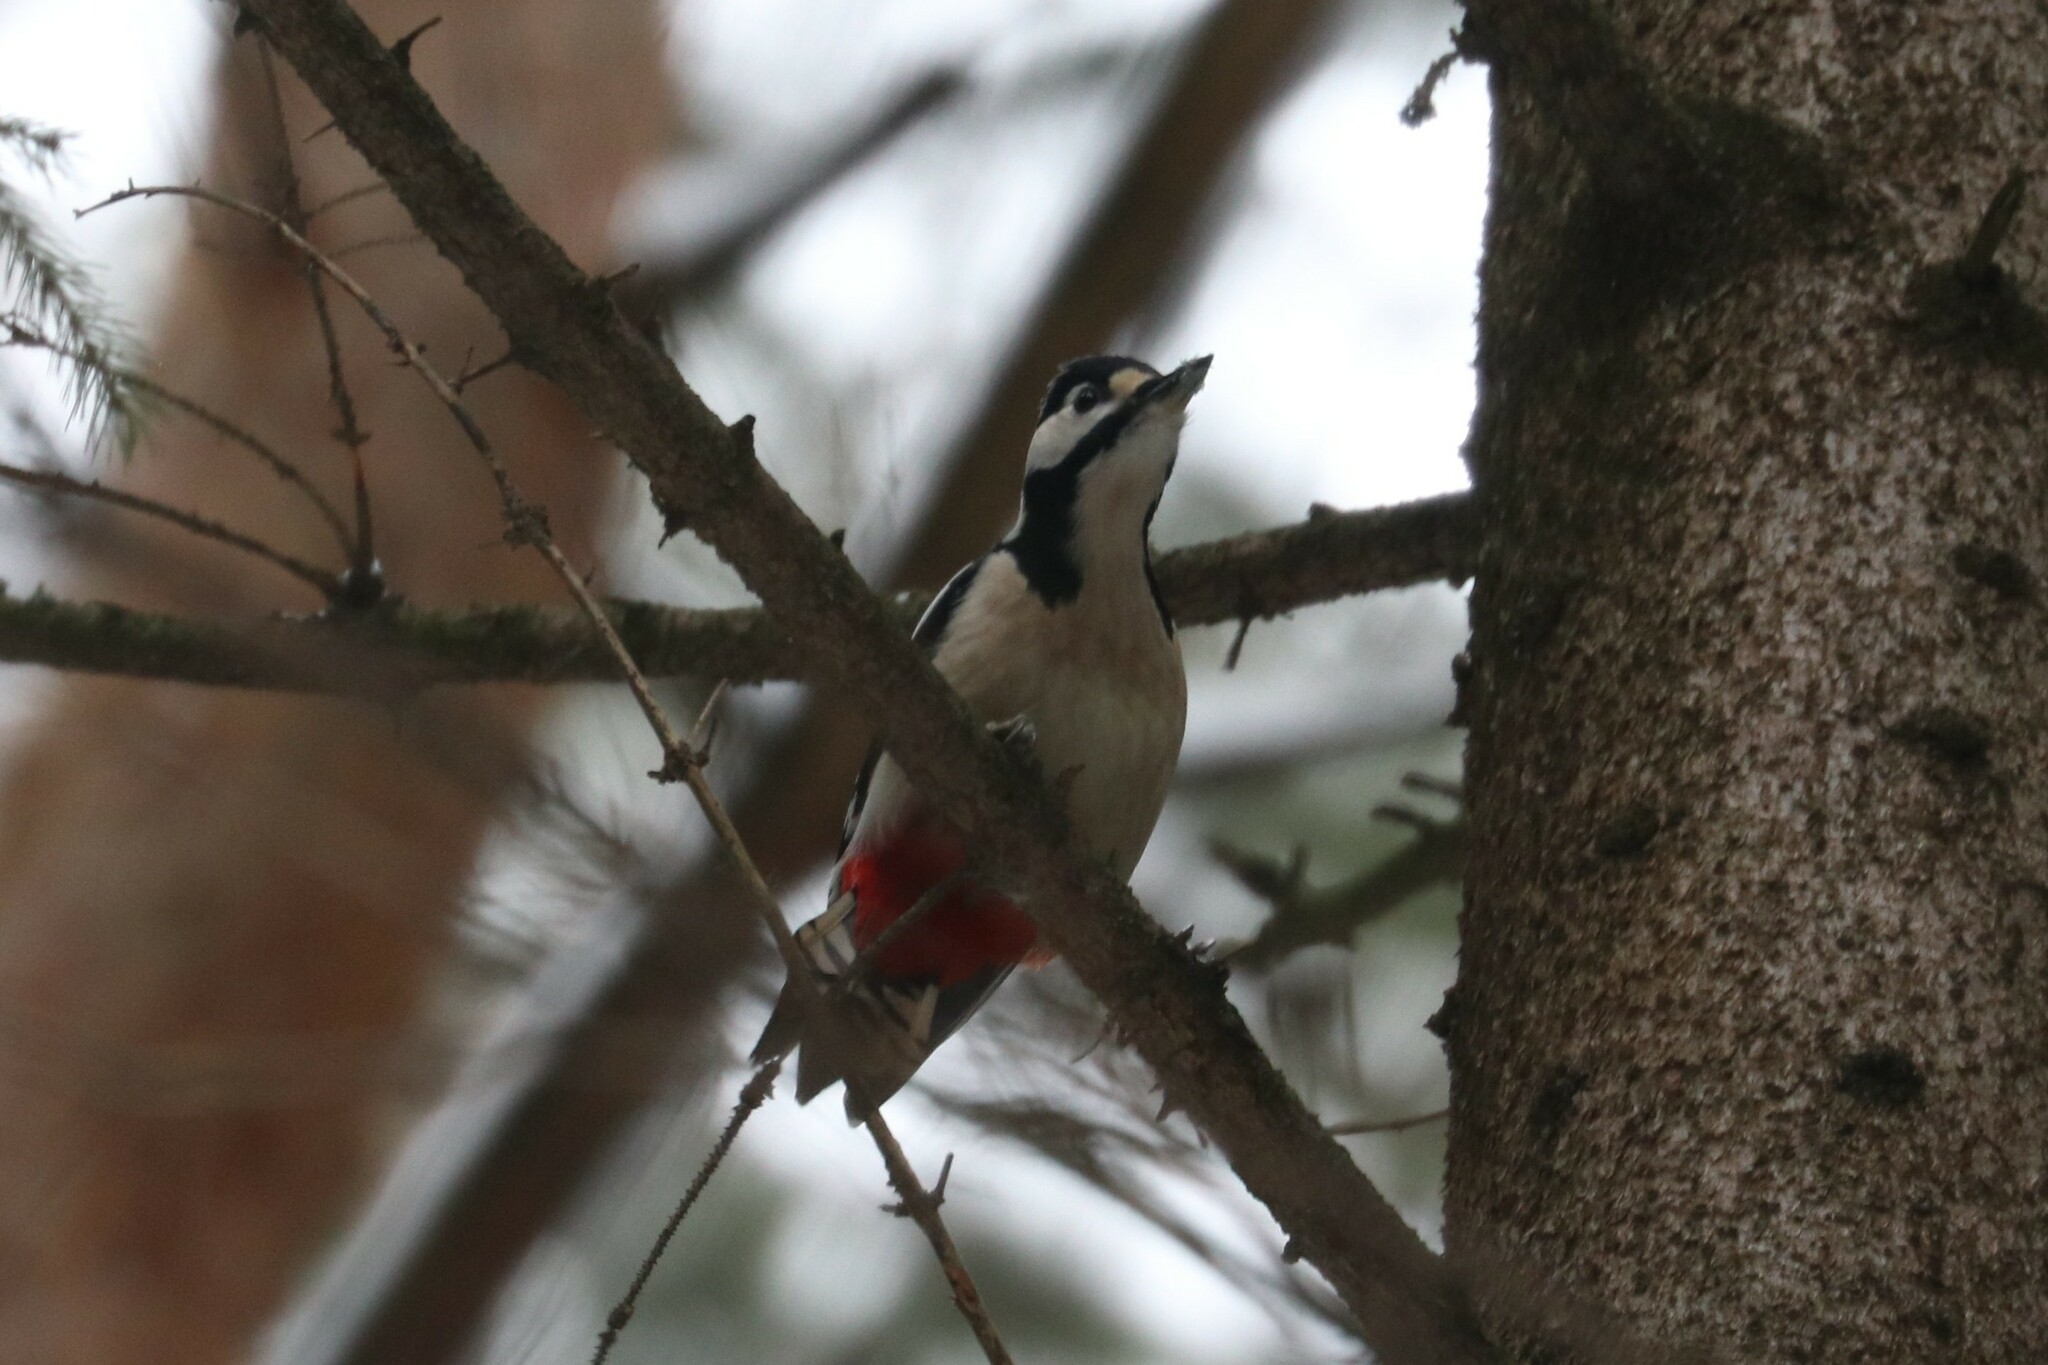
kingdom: Animalia
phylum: Chordata
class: Aves
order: Piciformes
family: Picidae
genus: Dendrocopos
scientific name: Dendrocopos major
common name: Great spotted woodpecker
